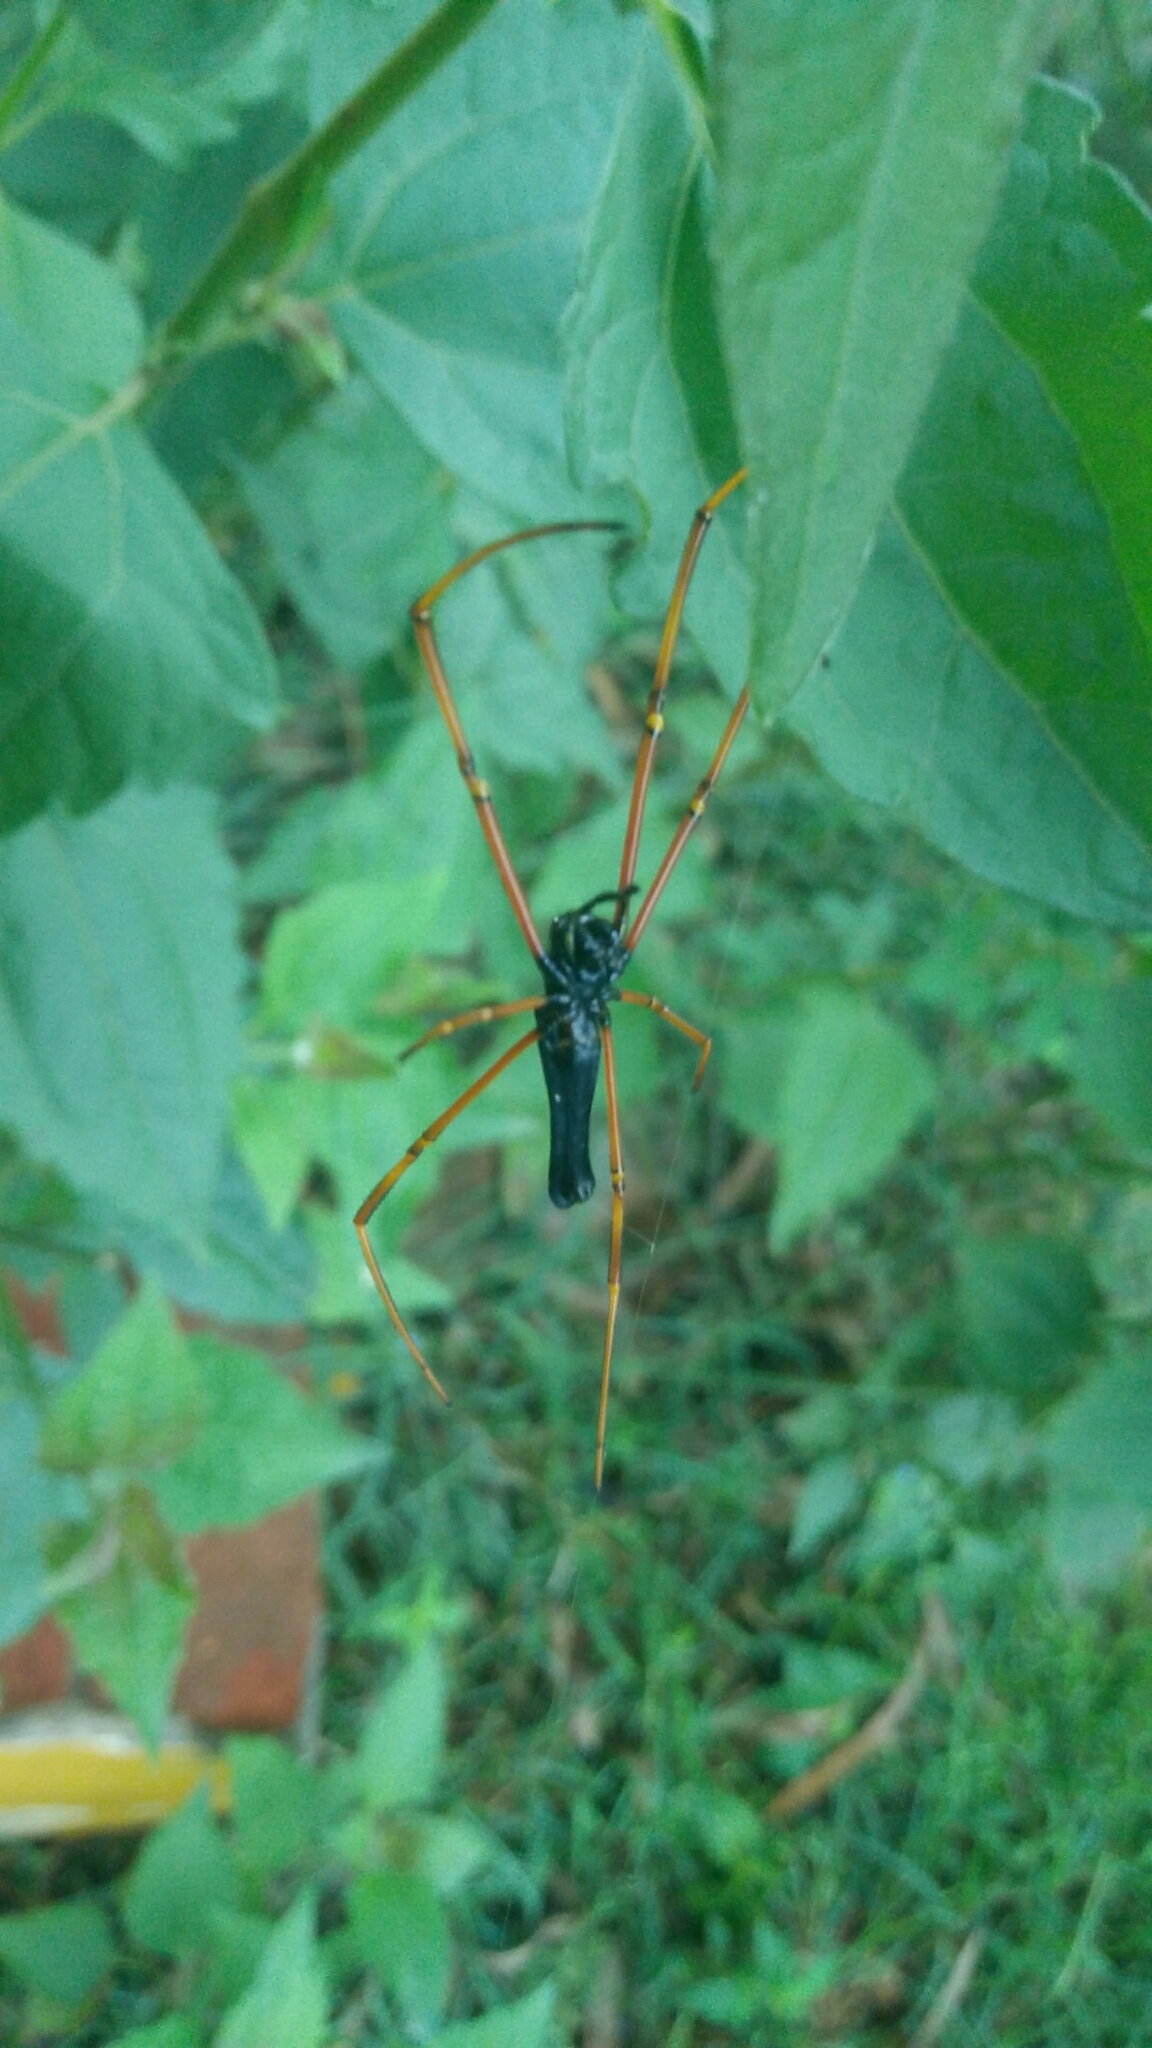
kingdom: Animalia
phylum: Arthropoda
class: Arachnida
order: Araneae
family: Araneidae
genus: Nephila
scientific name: Nephila kuhli
